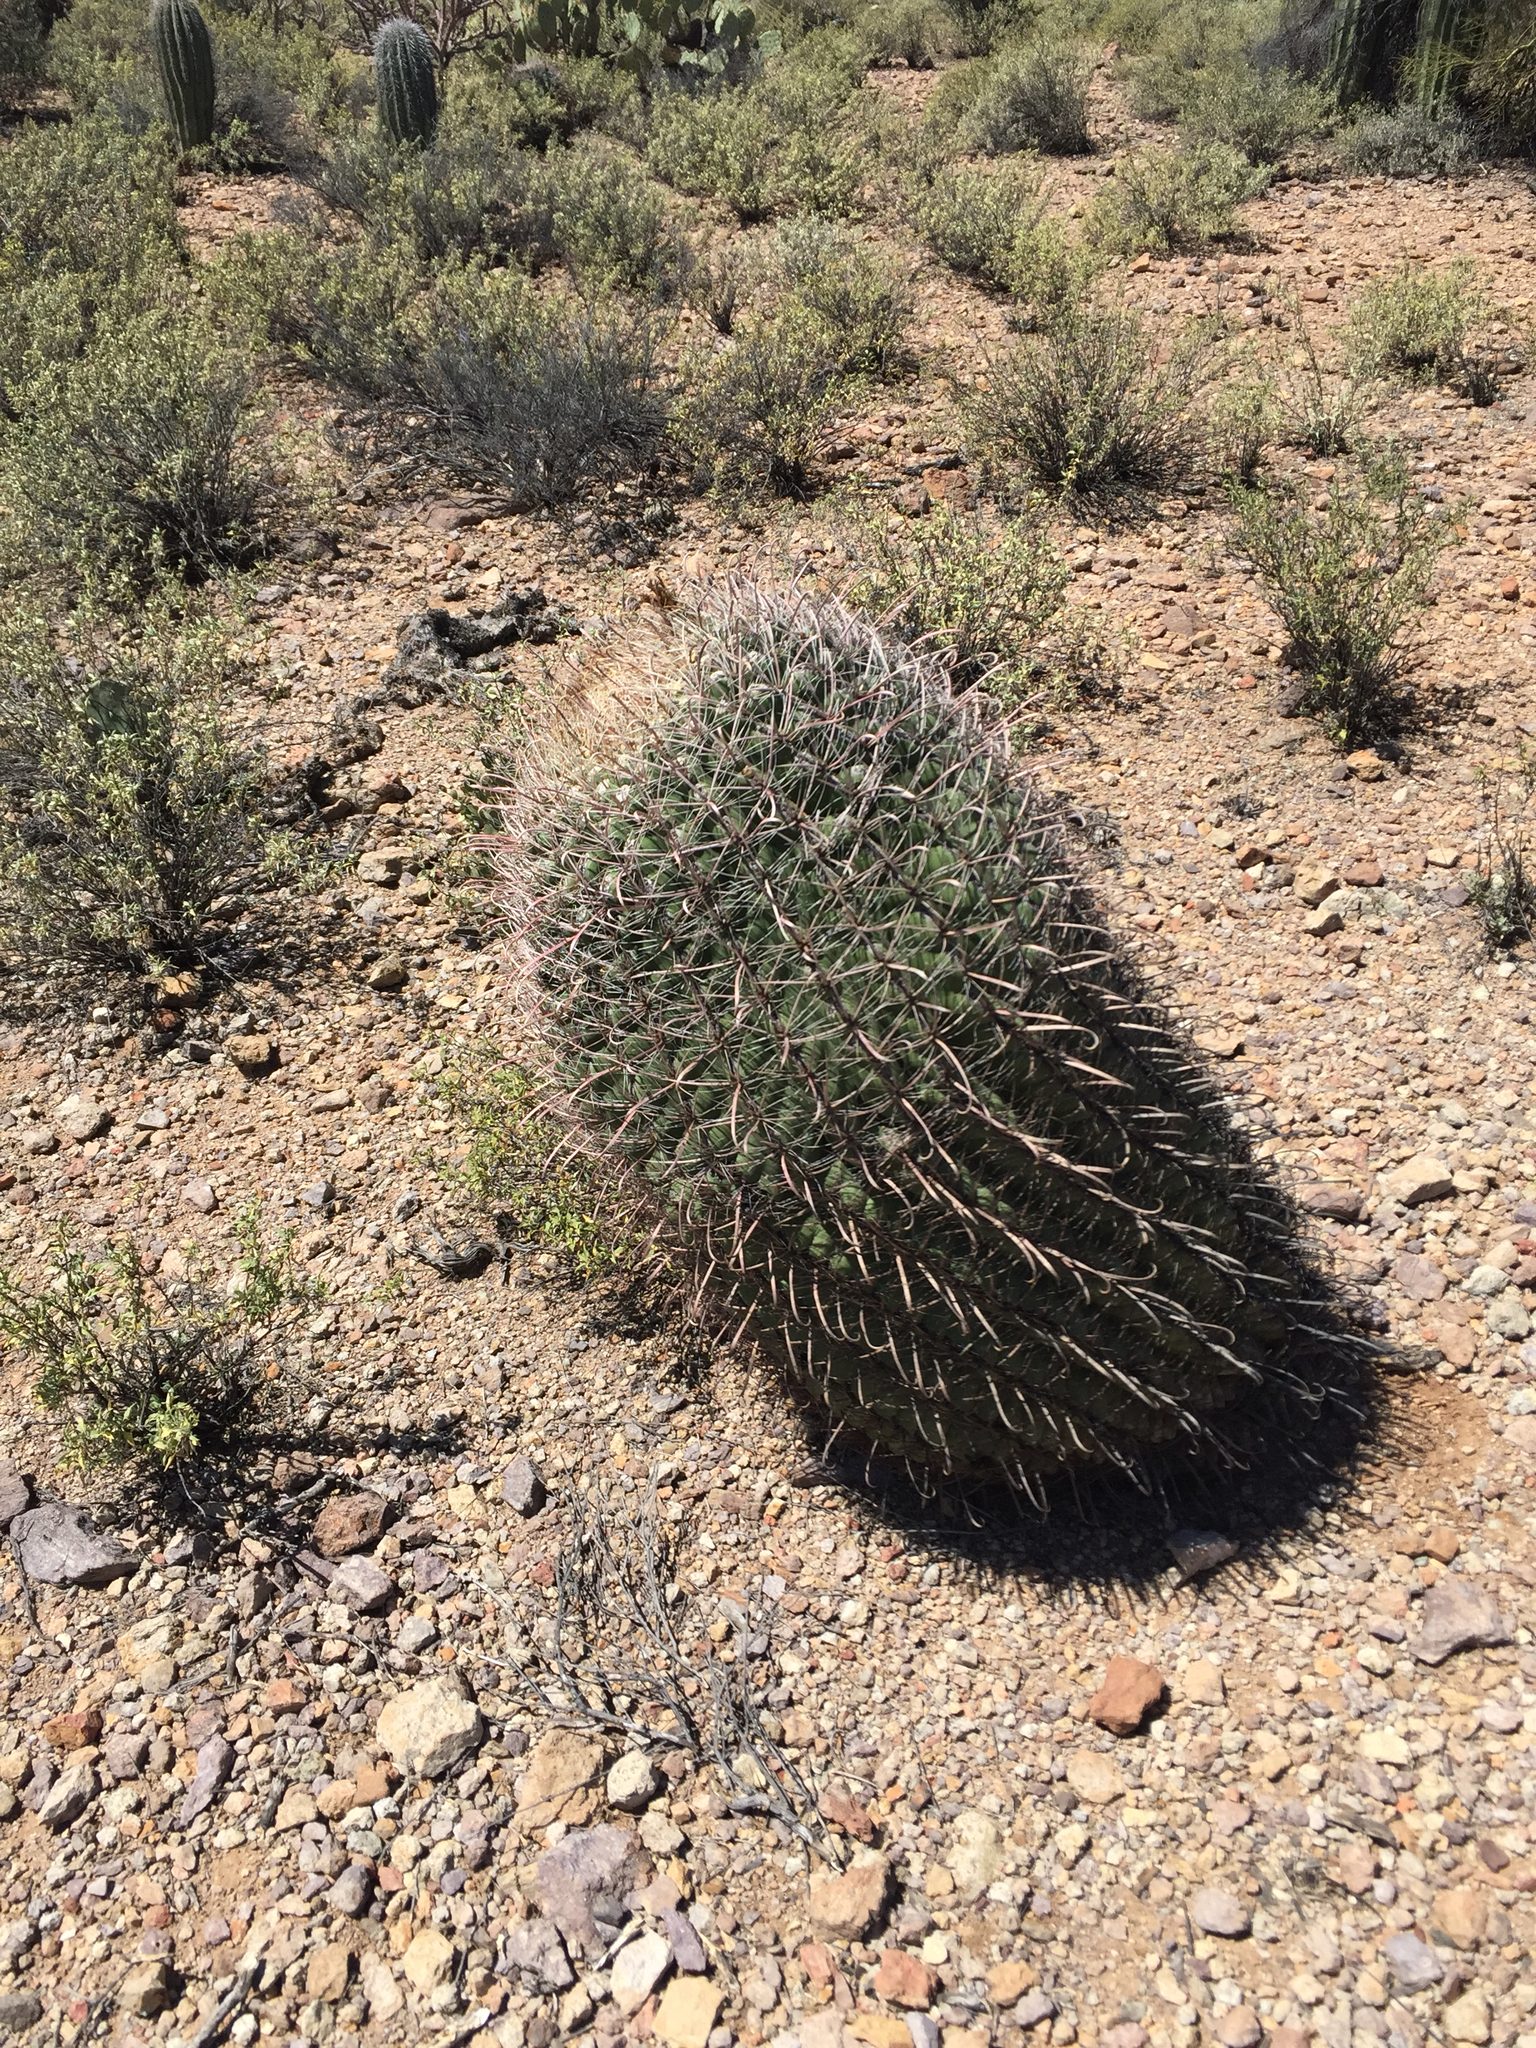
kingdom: Plantae
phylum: Tracheophyta
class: Magnoliopsida
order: Caryophyllales
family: Cactaceae
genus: Ferocactus
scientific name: Ferocactus wislizeni
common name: Candy barrel cactus
